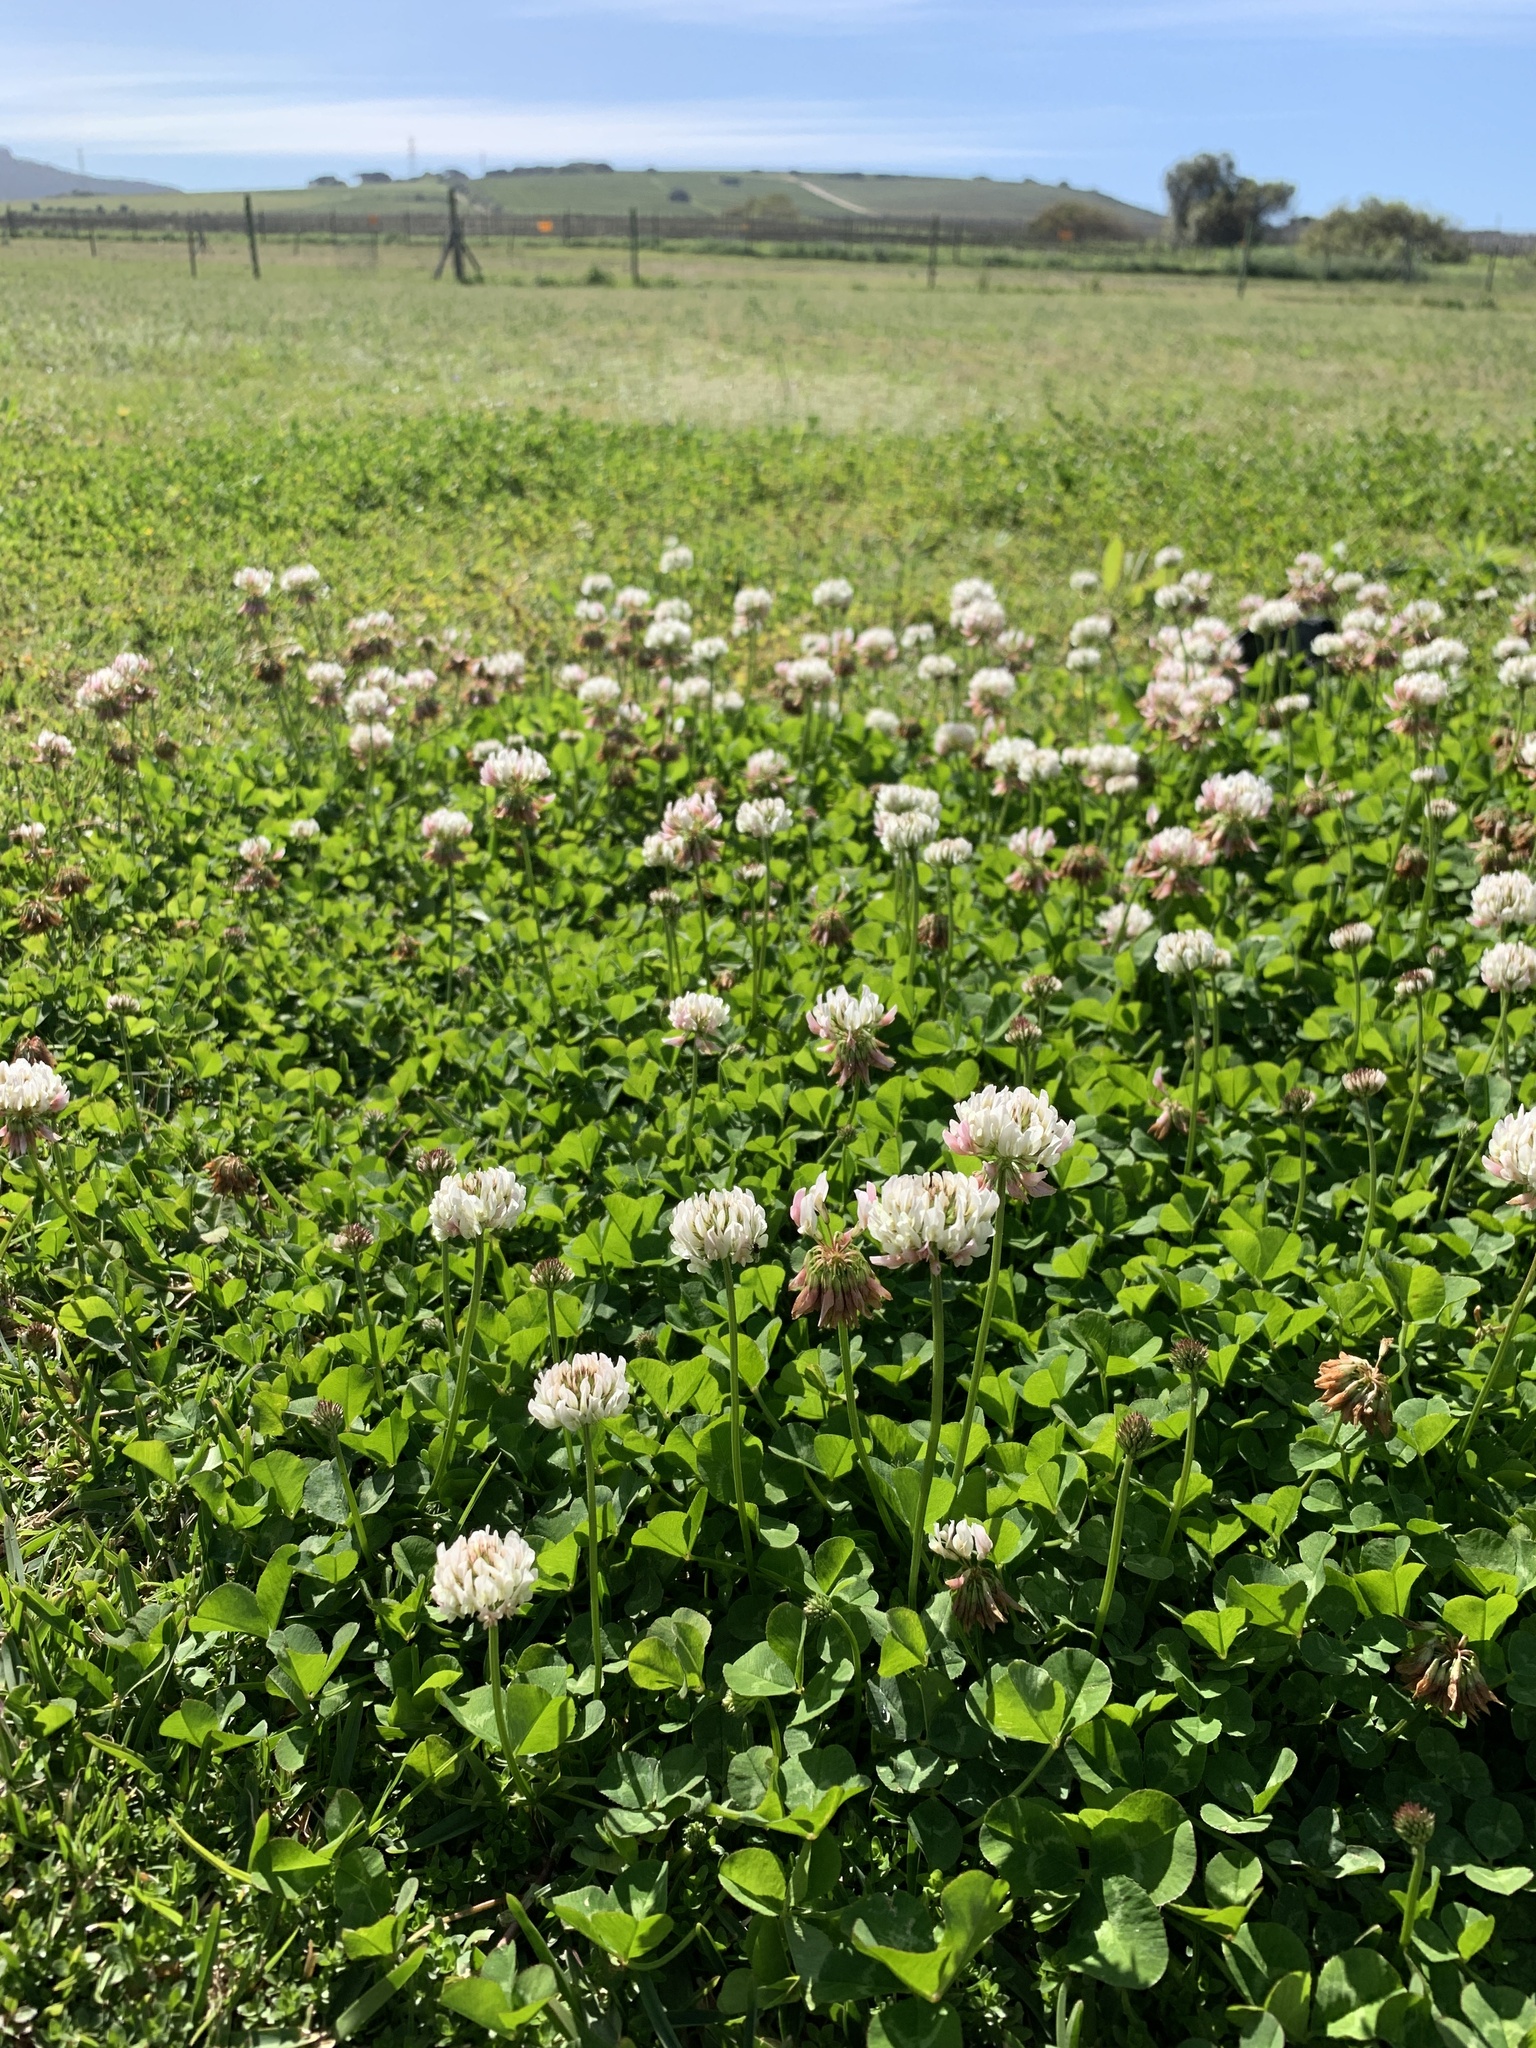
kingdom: Plantae
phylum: Tracheophyta
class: Magnoliopsida
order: Fabales
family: Fabaceae
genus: Trifolium
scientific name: Trifolium repens
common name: White clover
